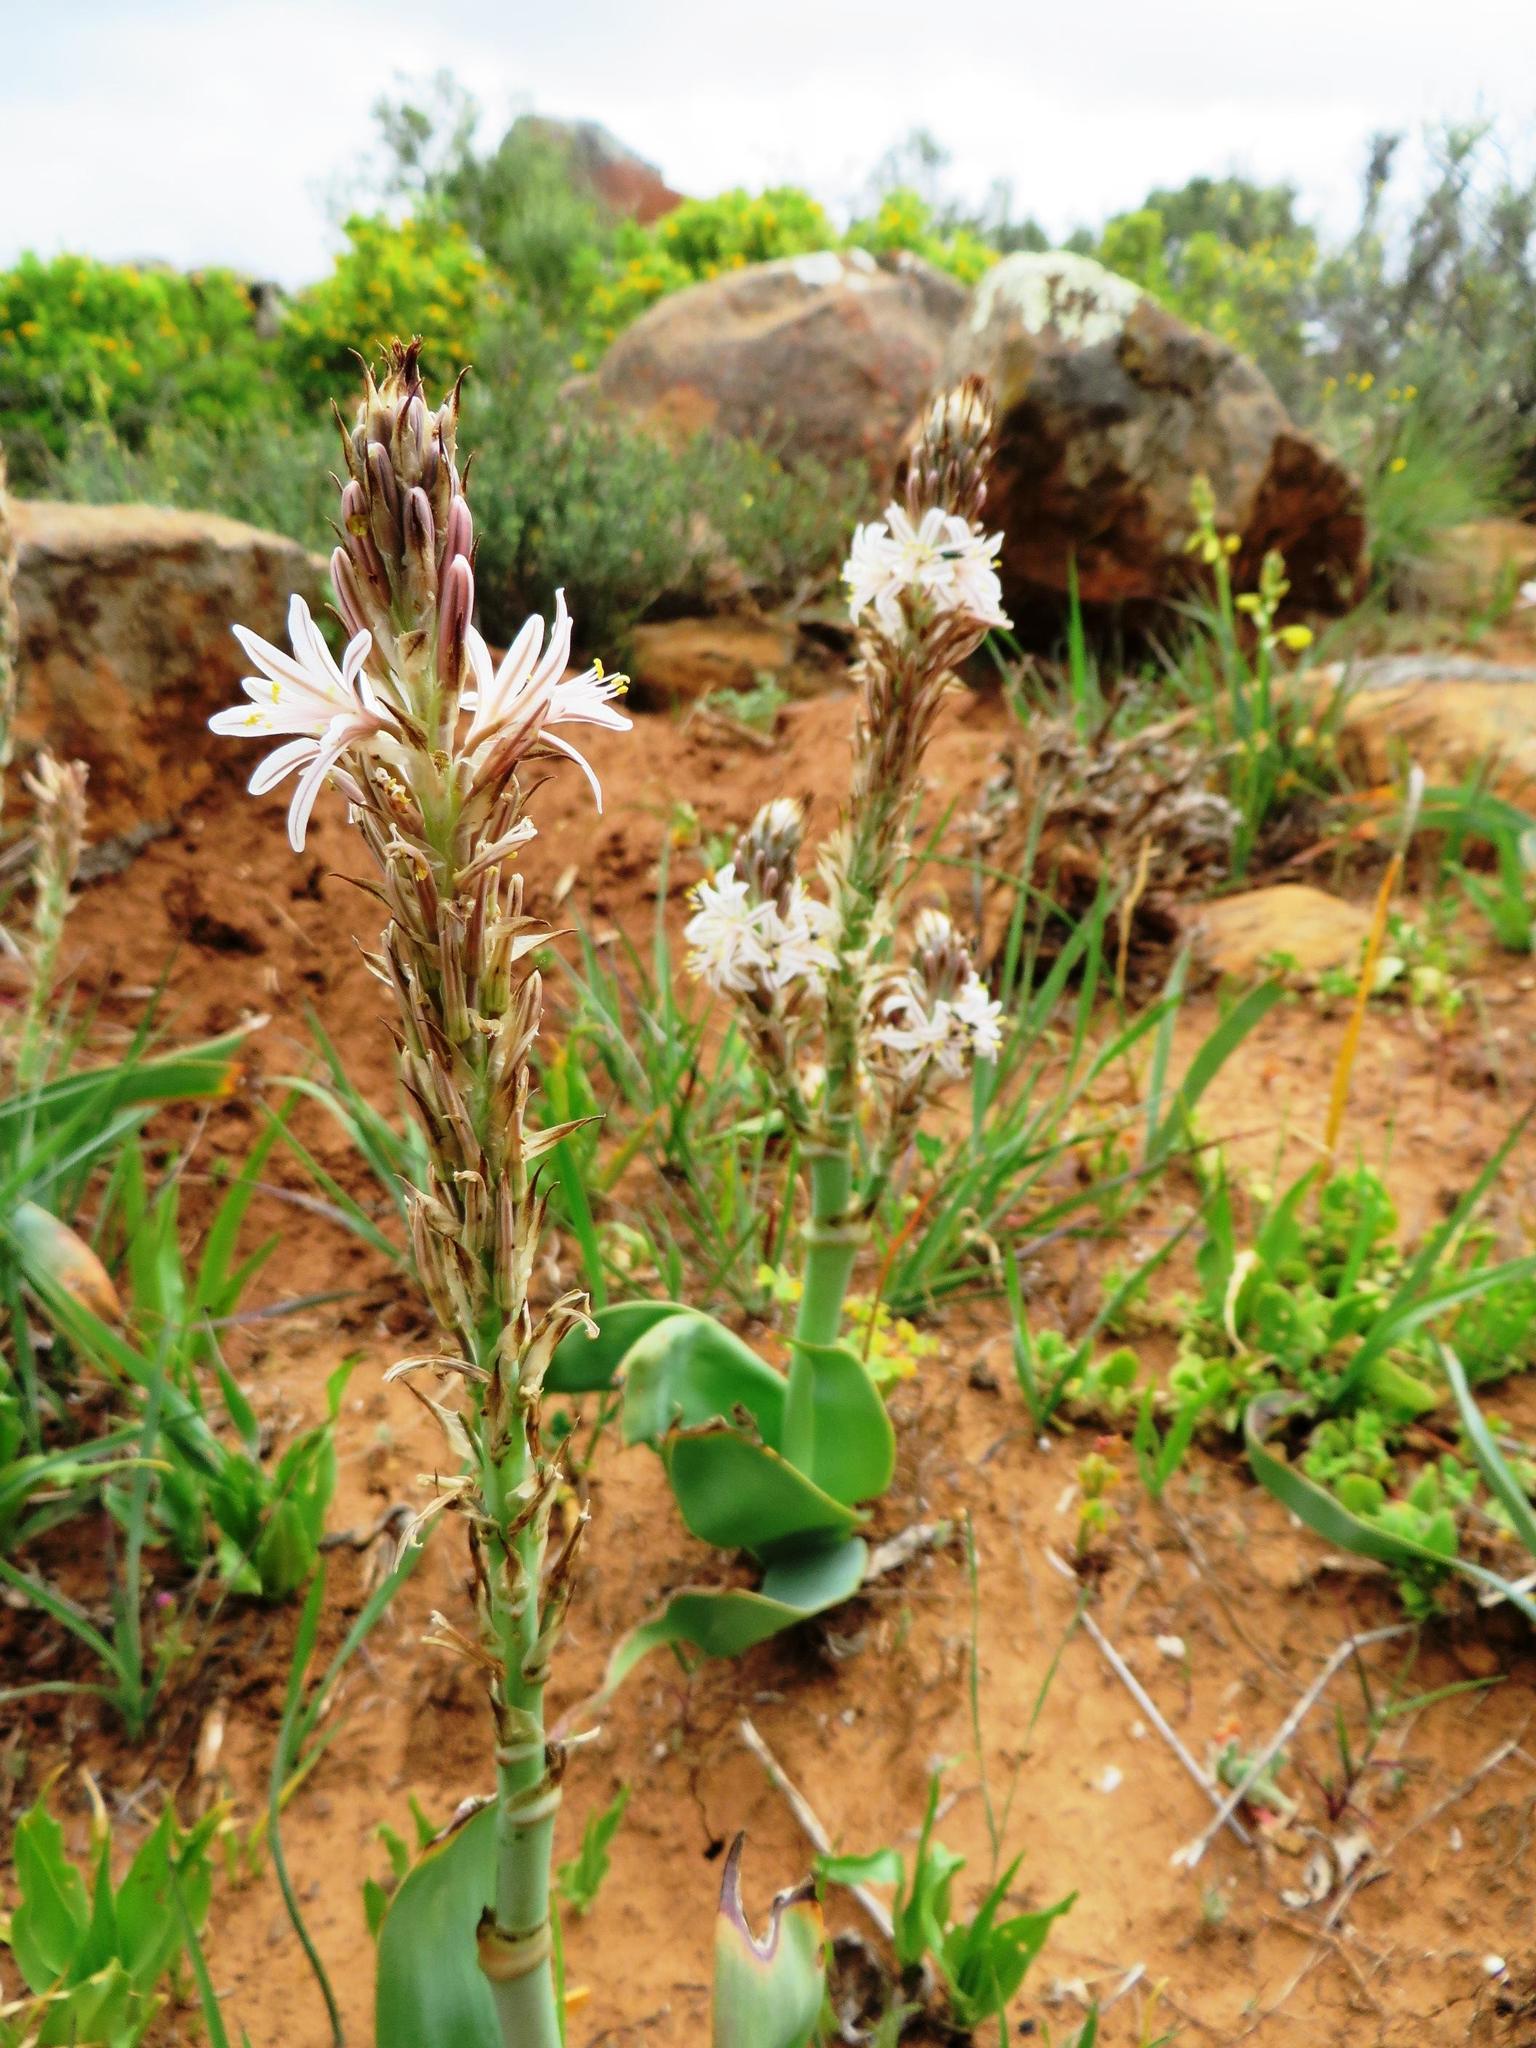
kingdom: Plantae
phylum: Tracheophyta
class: Liliopsida
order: Asparagales
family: Asphodelaceae
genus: Trachyandra
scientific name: Trachyandra falcata
